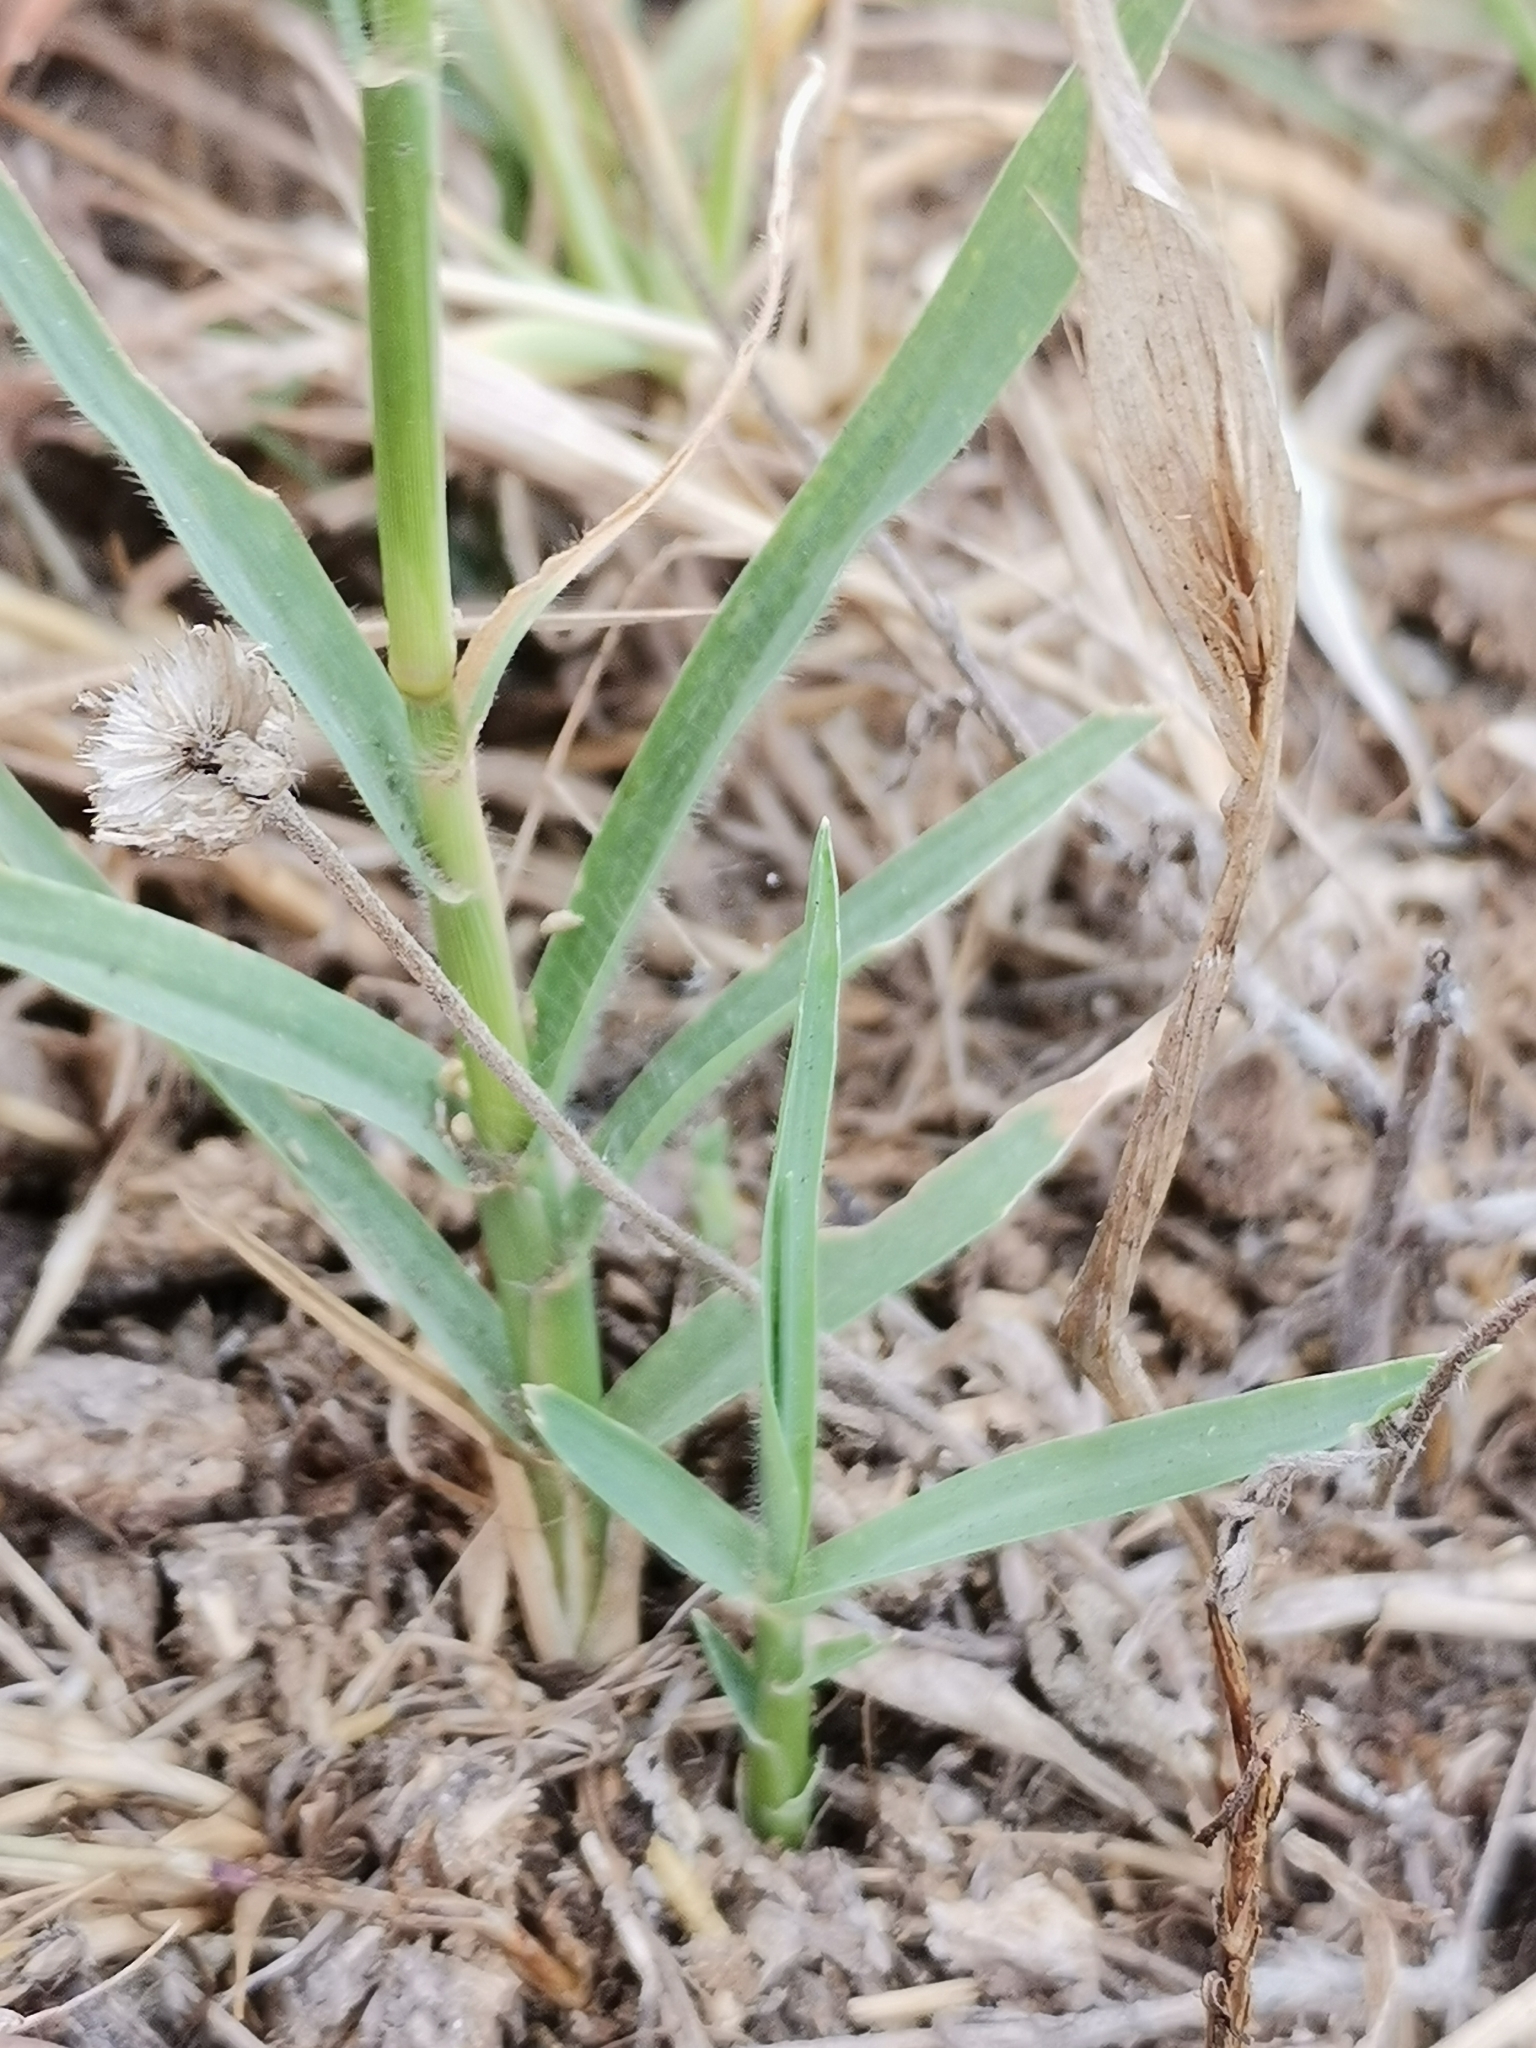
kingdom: Plantae
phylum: Tracheophyta
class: Liliopsida
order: Poales
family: Poaceae
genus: Cynodon
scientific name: Cynodon dactylon
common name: Bermuda grass
